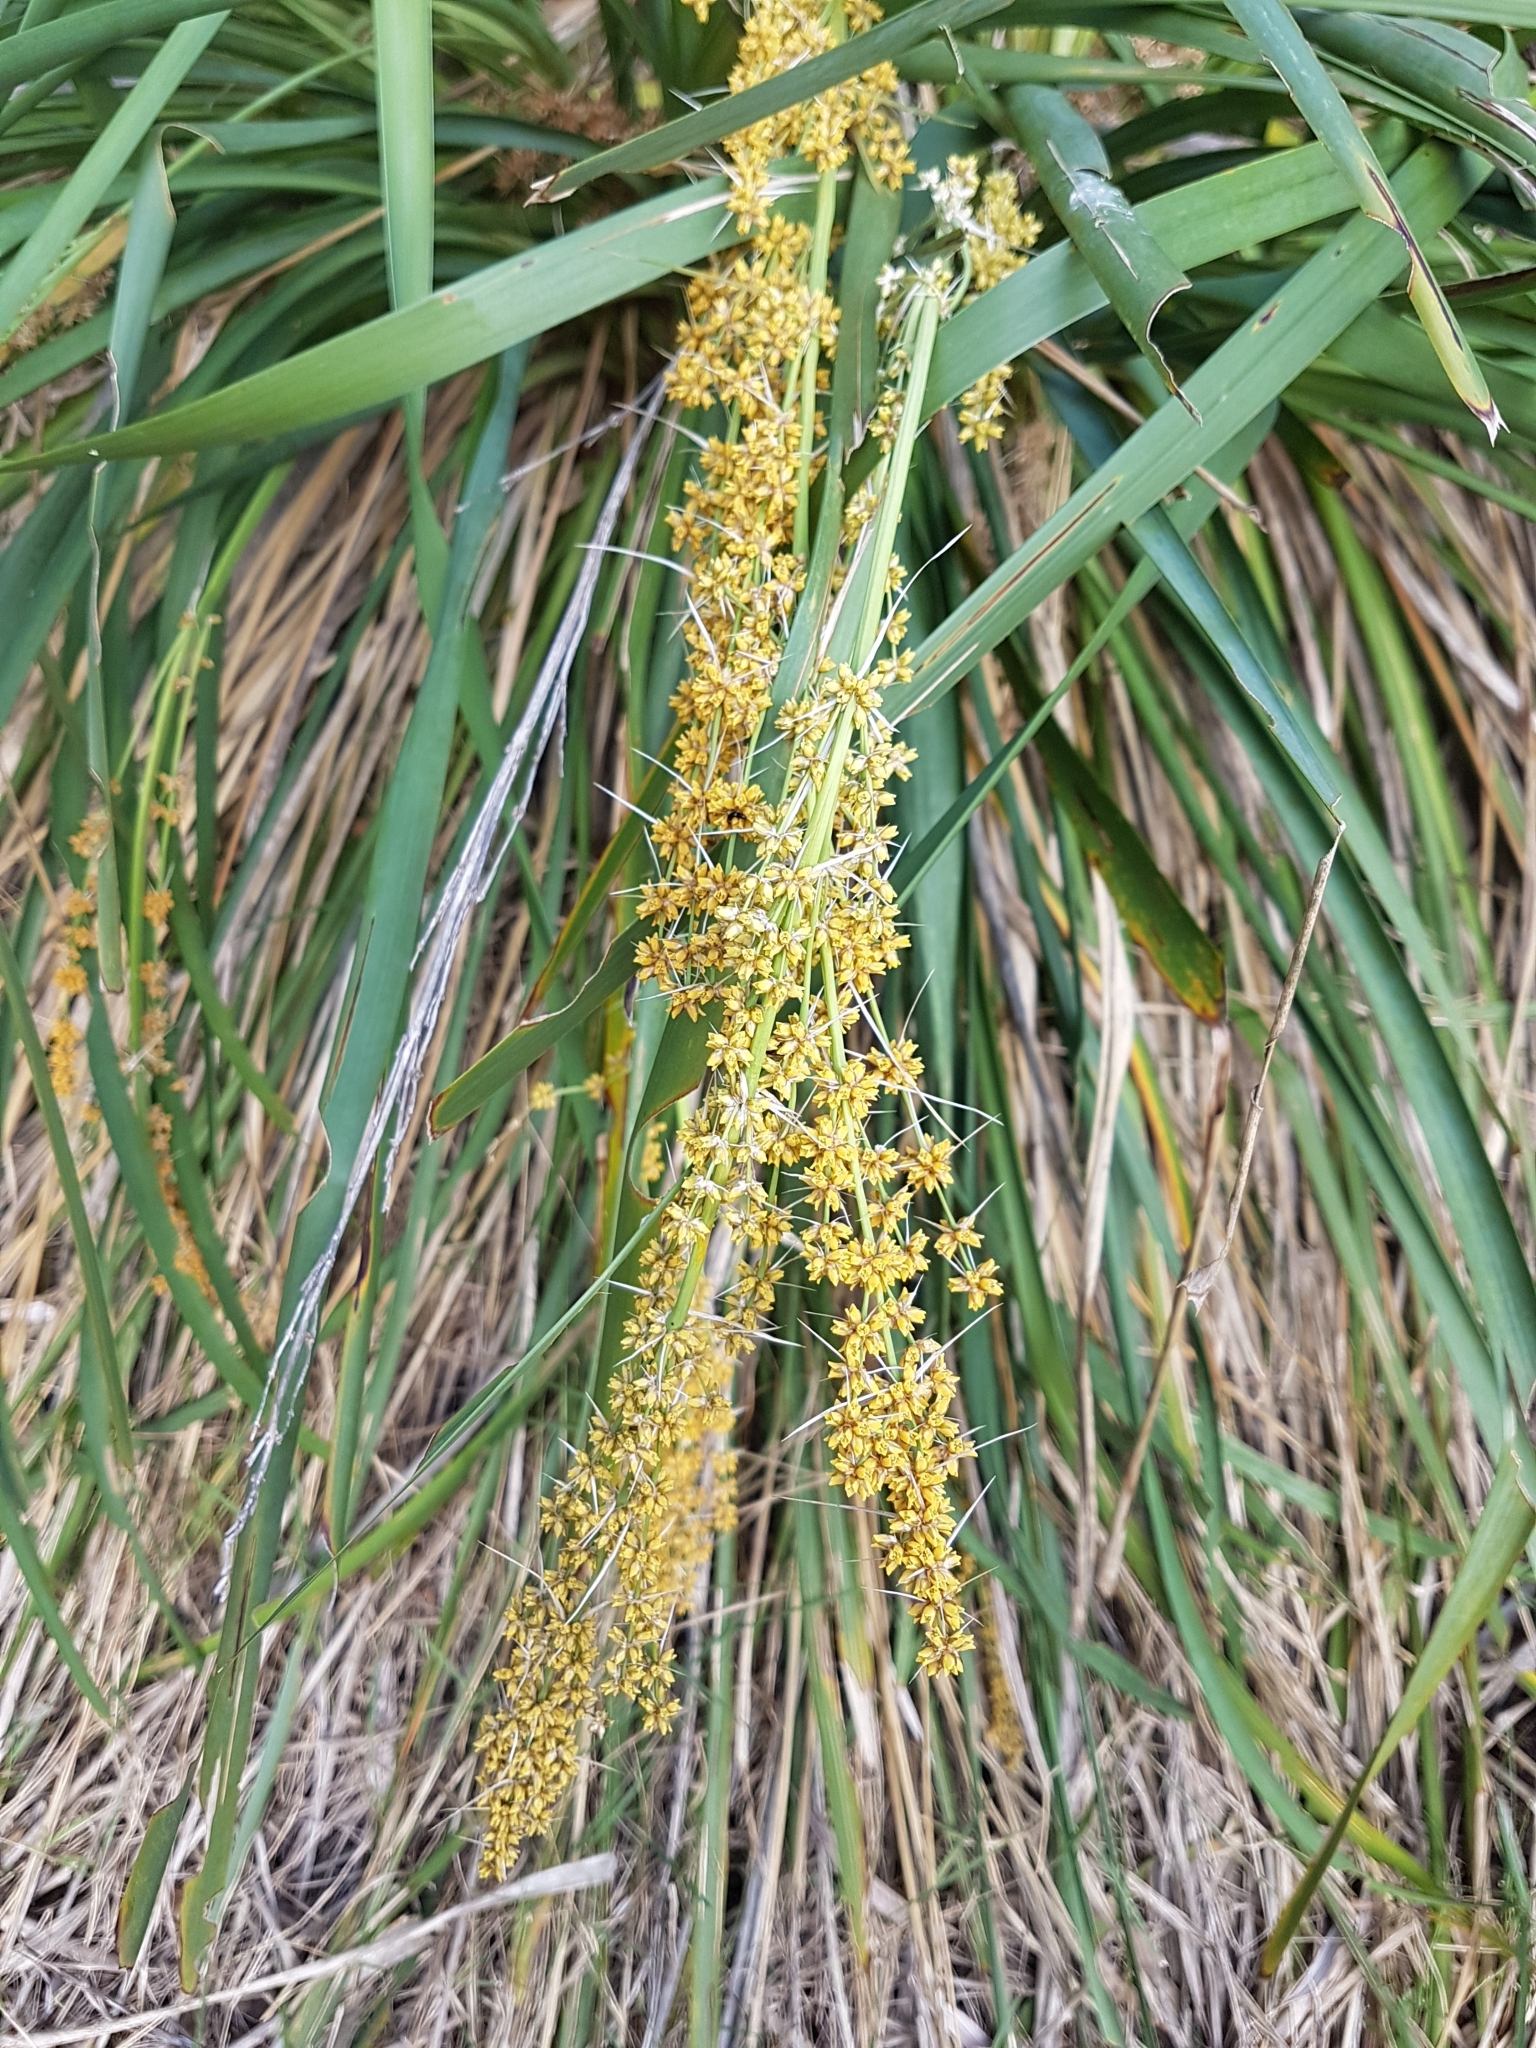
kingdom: Plantae
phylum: Tracheophyta
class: Liliopsida
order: Asparagales
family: Asparagaceae
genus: Lomandra
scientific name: Lomandra longifolia
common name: Longleaf mat-rush
